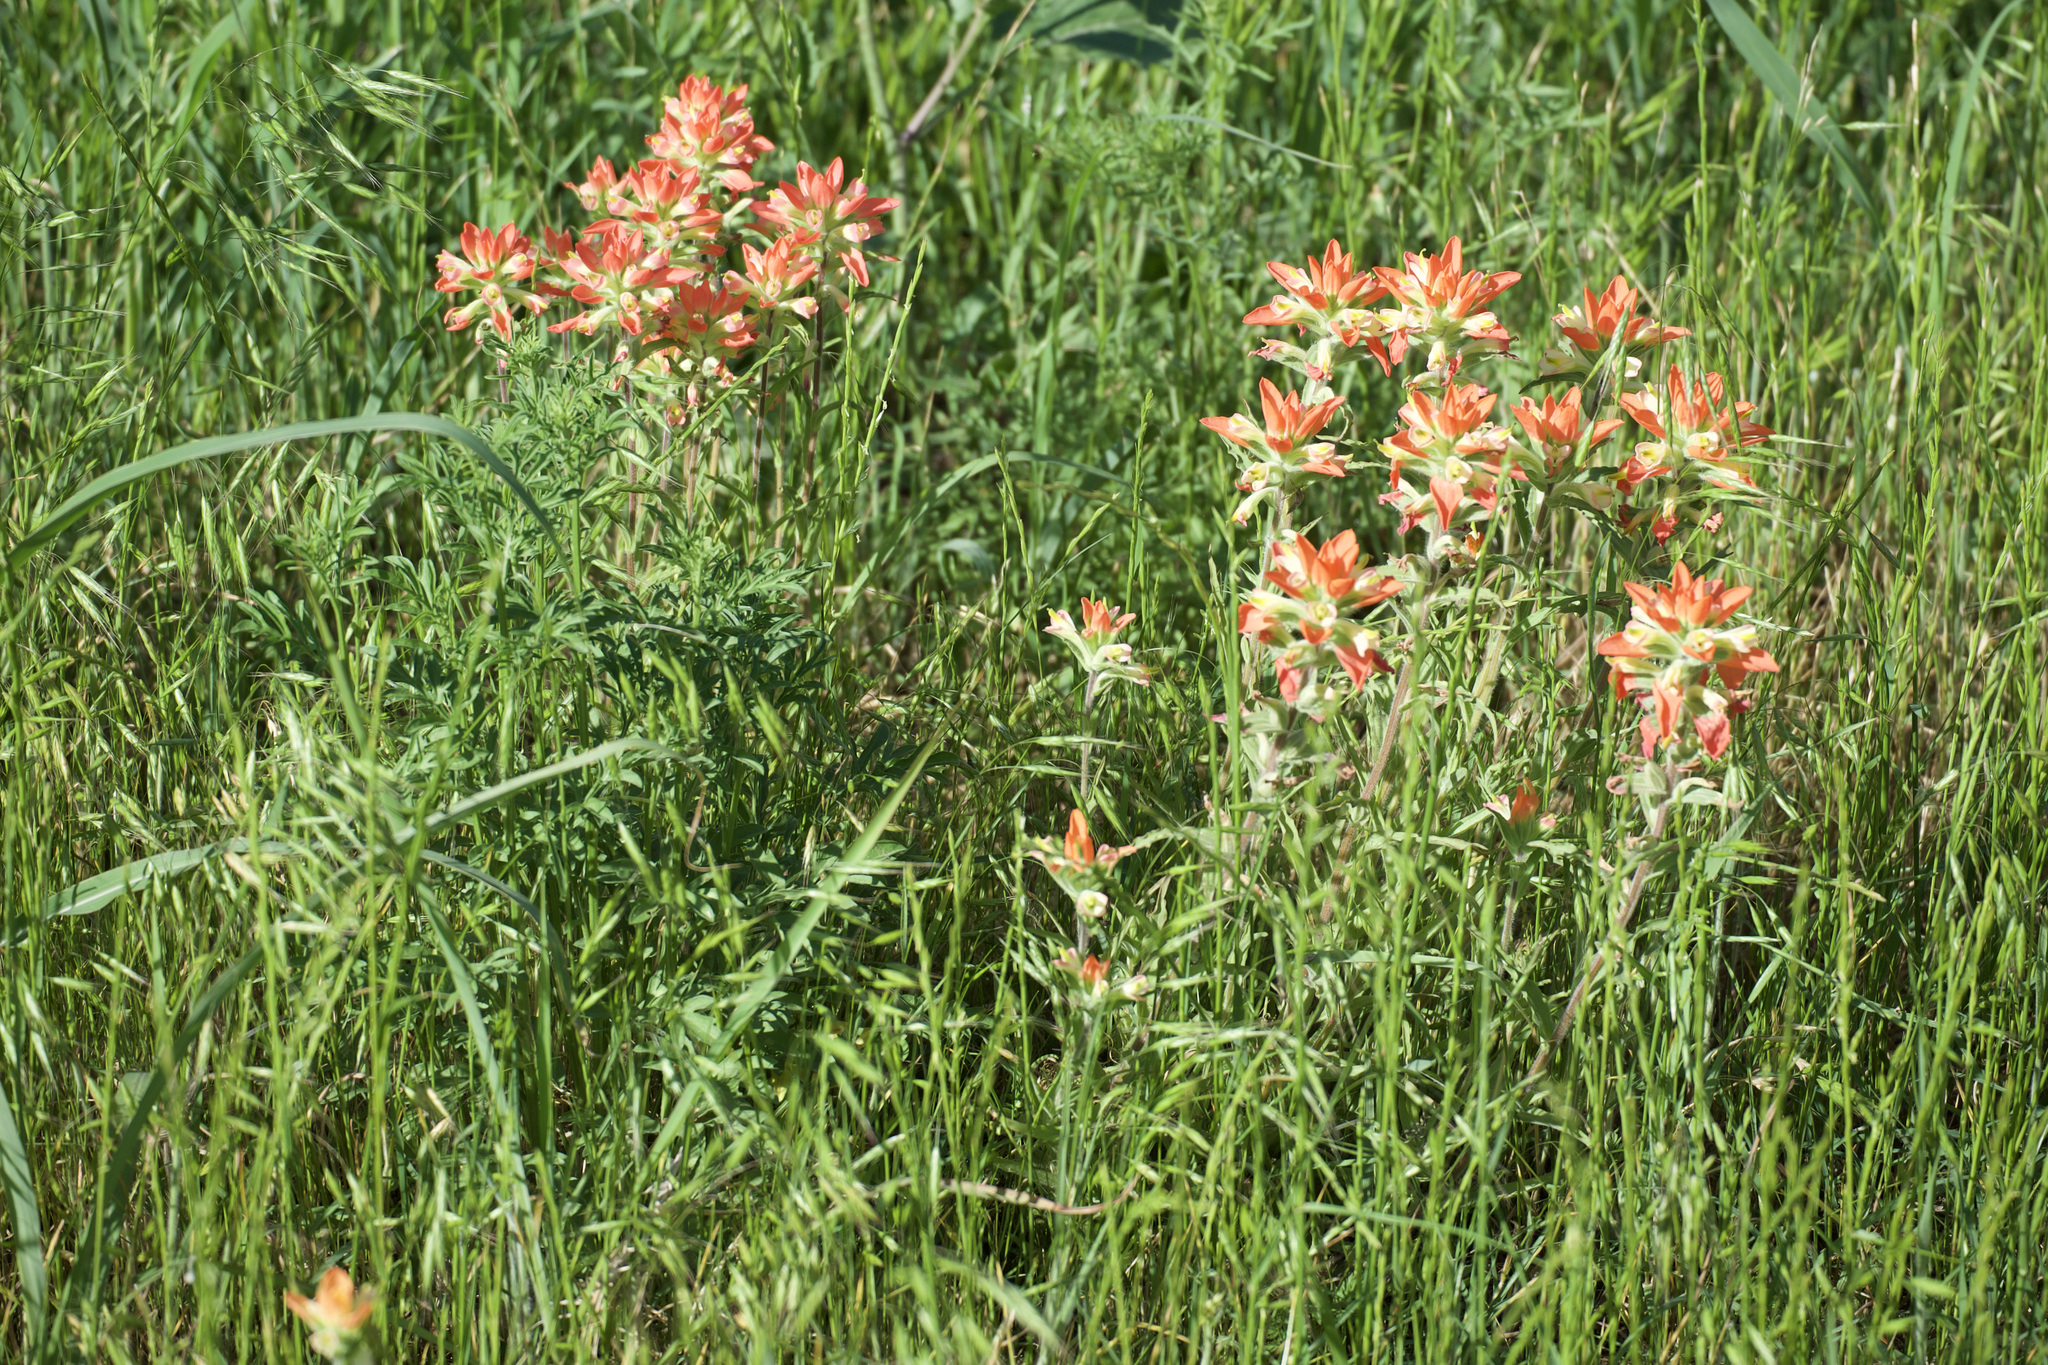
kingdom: Plantae
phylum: Tracheophyta
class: Magnoliopsida
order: Lamiales
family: Orobanchaceae
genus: Castilleja
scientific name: Castilleja indivisa
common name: Texas paintbrush
